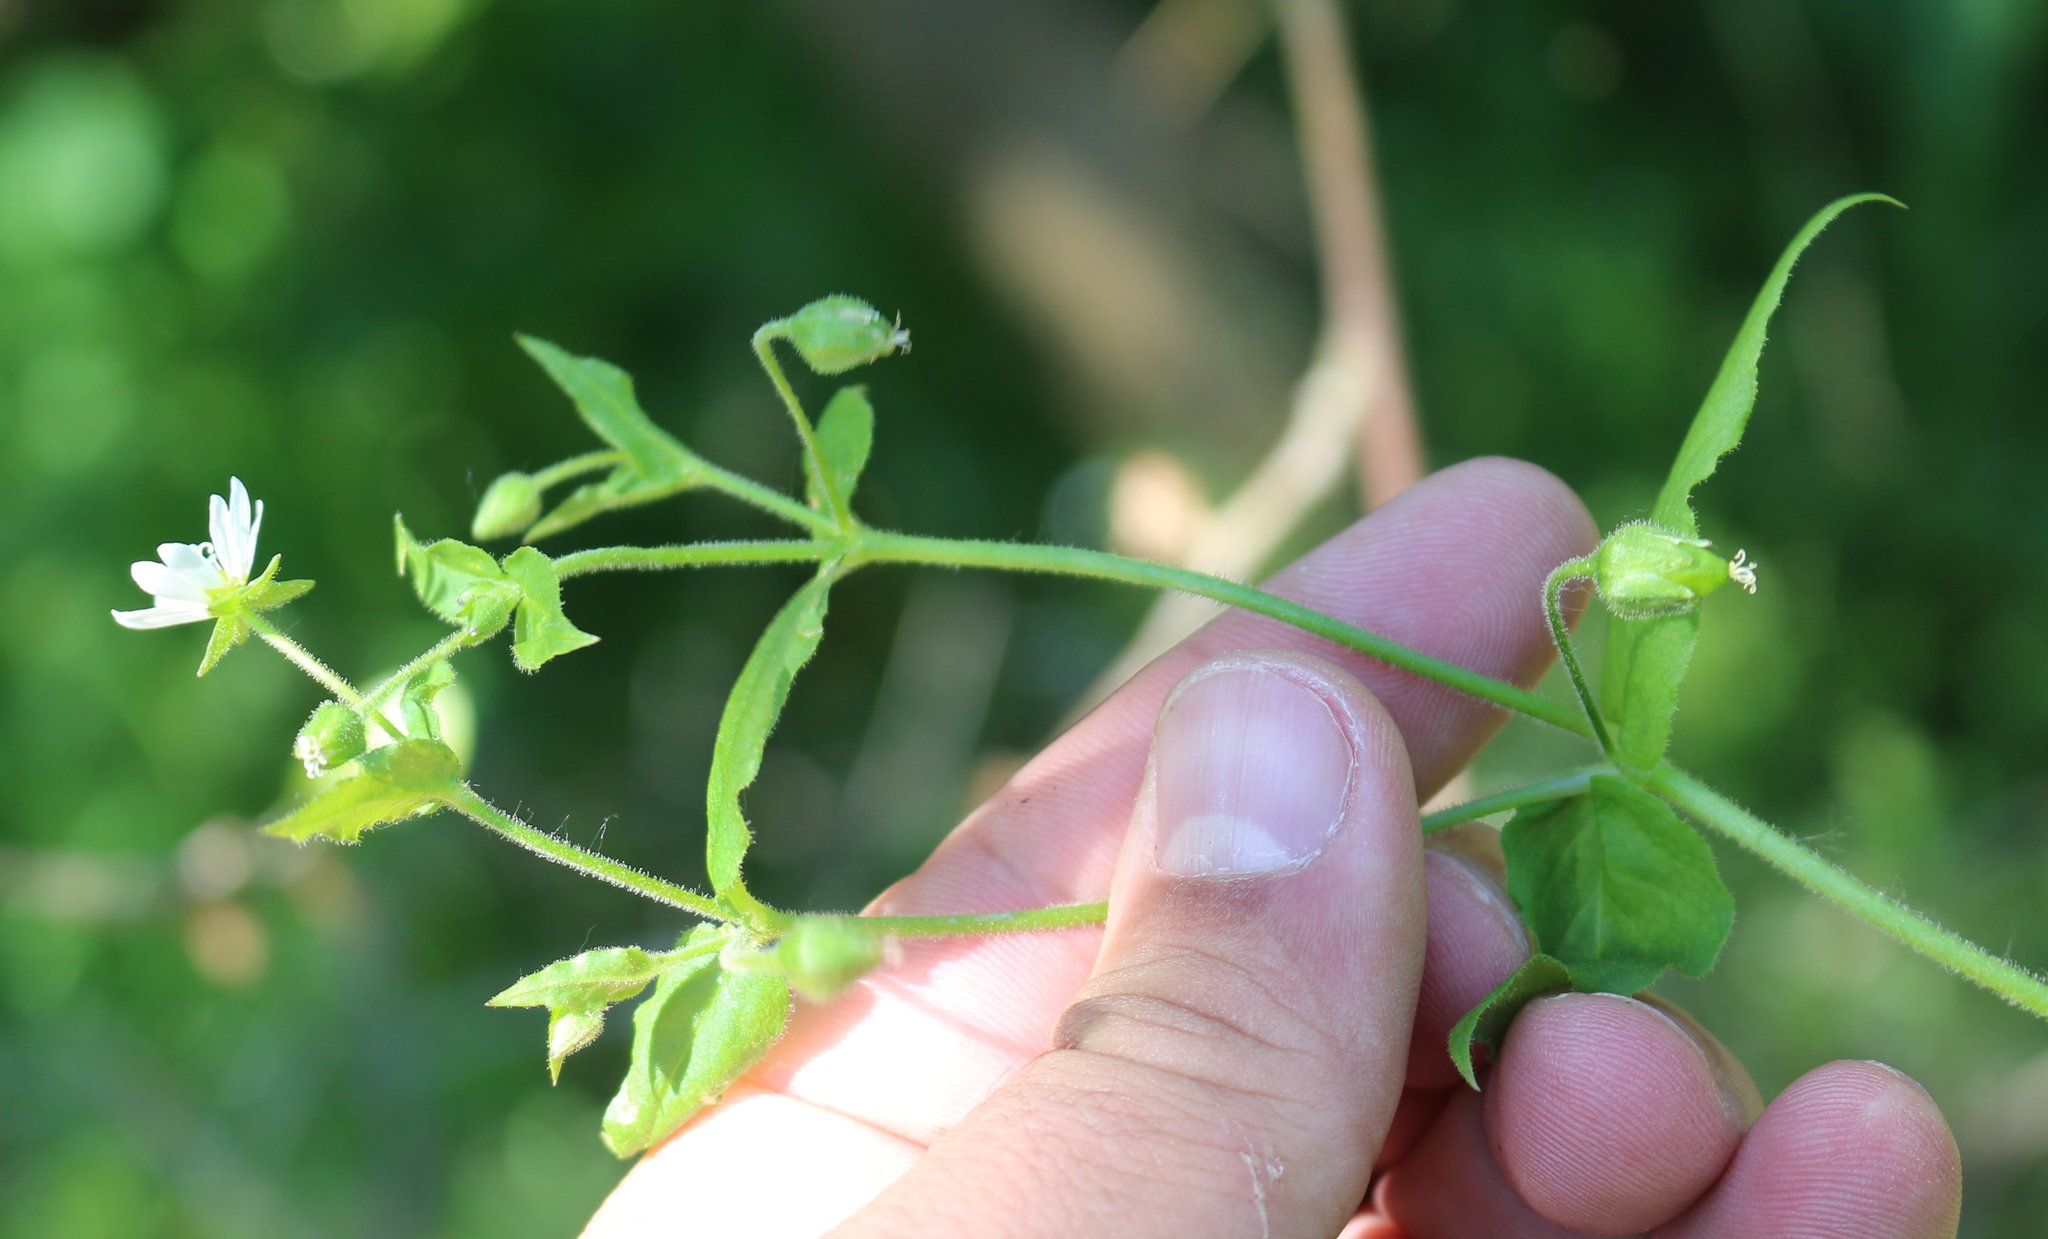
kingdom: Plantae
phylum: Tracheophyta
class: Magnoliopsida
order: Caryophyllales
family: Caryophyllaceae
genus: Stellaria
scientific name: Stellaria aquatica
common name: Water chickweed
